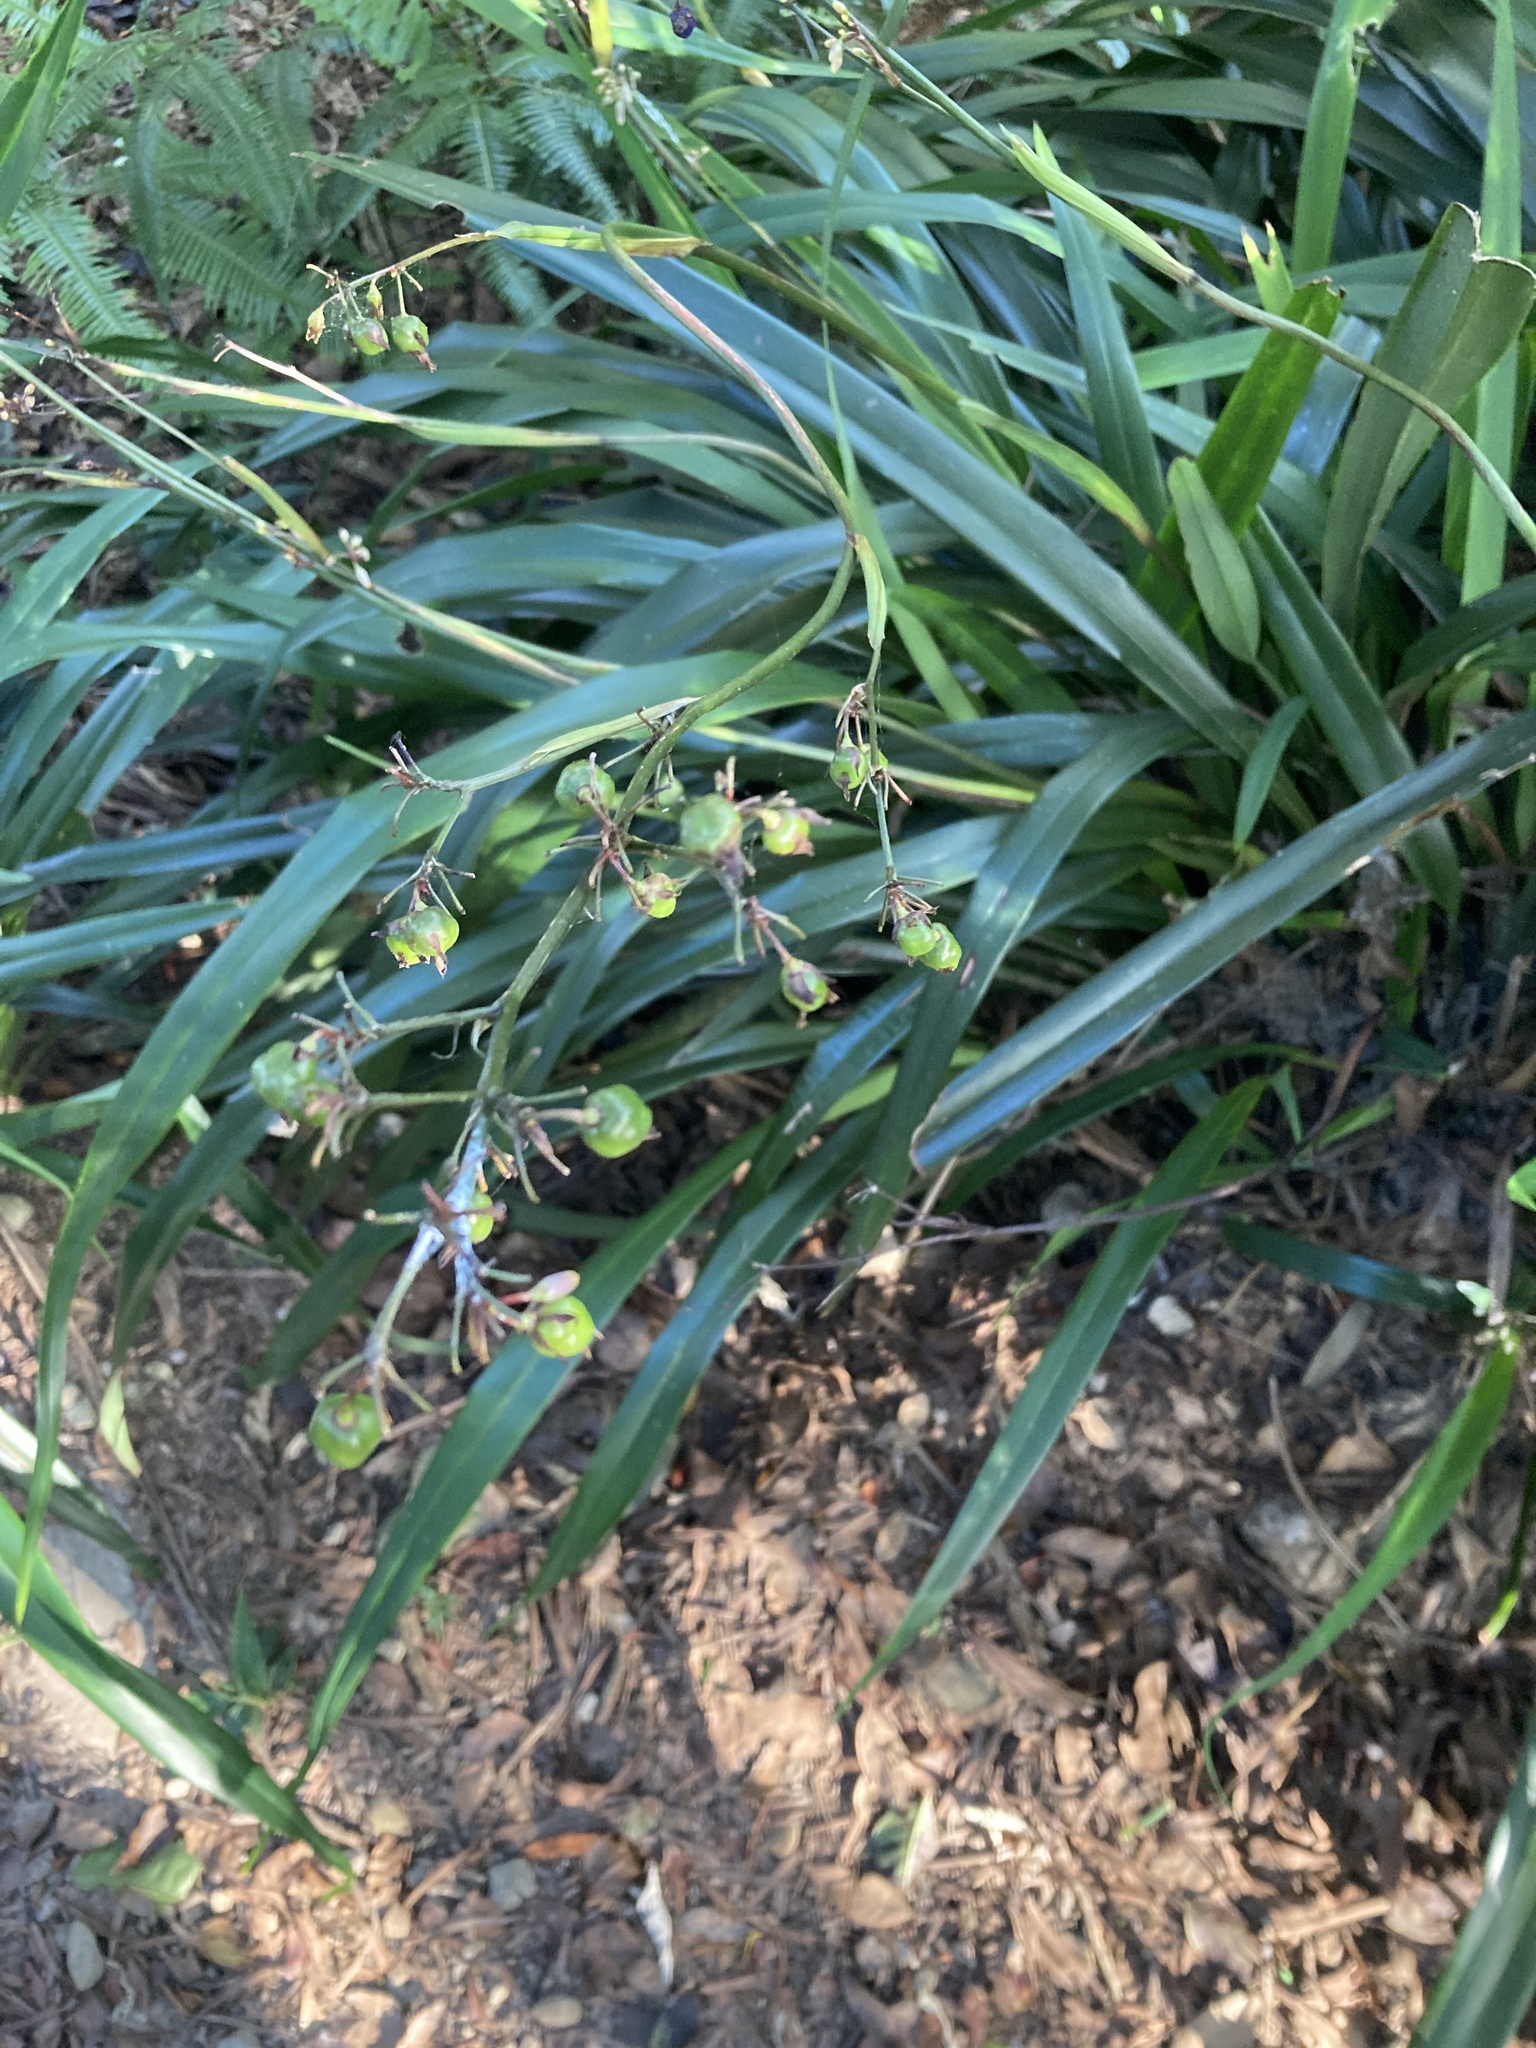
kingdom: Plantae
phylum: Tracheophyta
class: Liliopsida
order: Asparagales
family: Asphodelaceae
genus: Dianella
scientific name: Dianella ensifolia
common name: New zealand lilyplant
